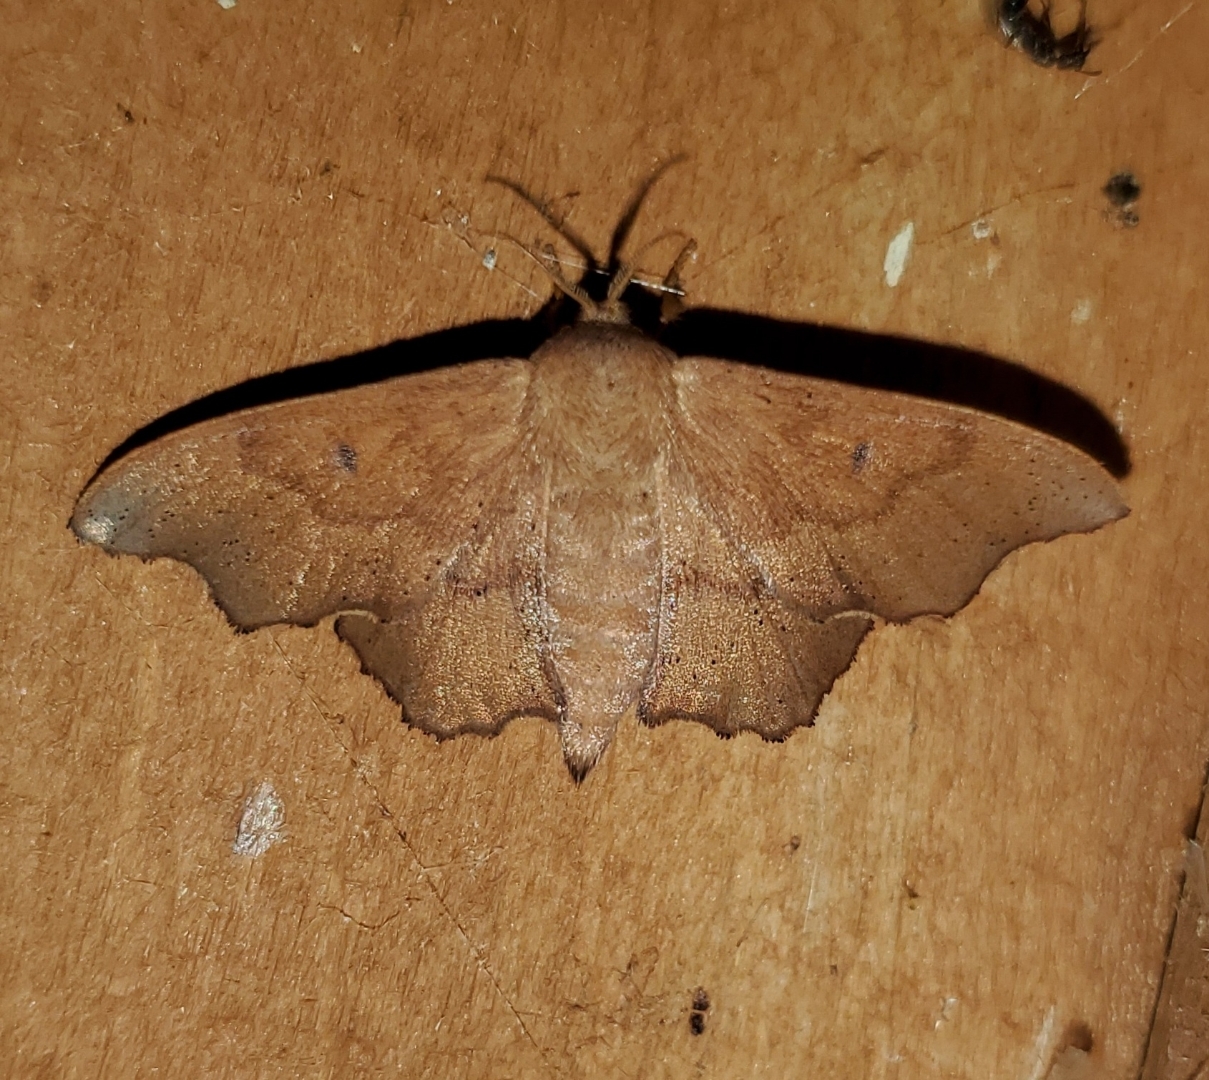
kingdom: Animalia
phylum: Arthropoda
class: Insecta
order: Lepidoptera
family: Mimallonidae
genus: Lacosoma
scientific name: Lacosoma chiridota
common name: Scalloped sack-bearer moth
